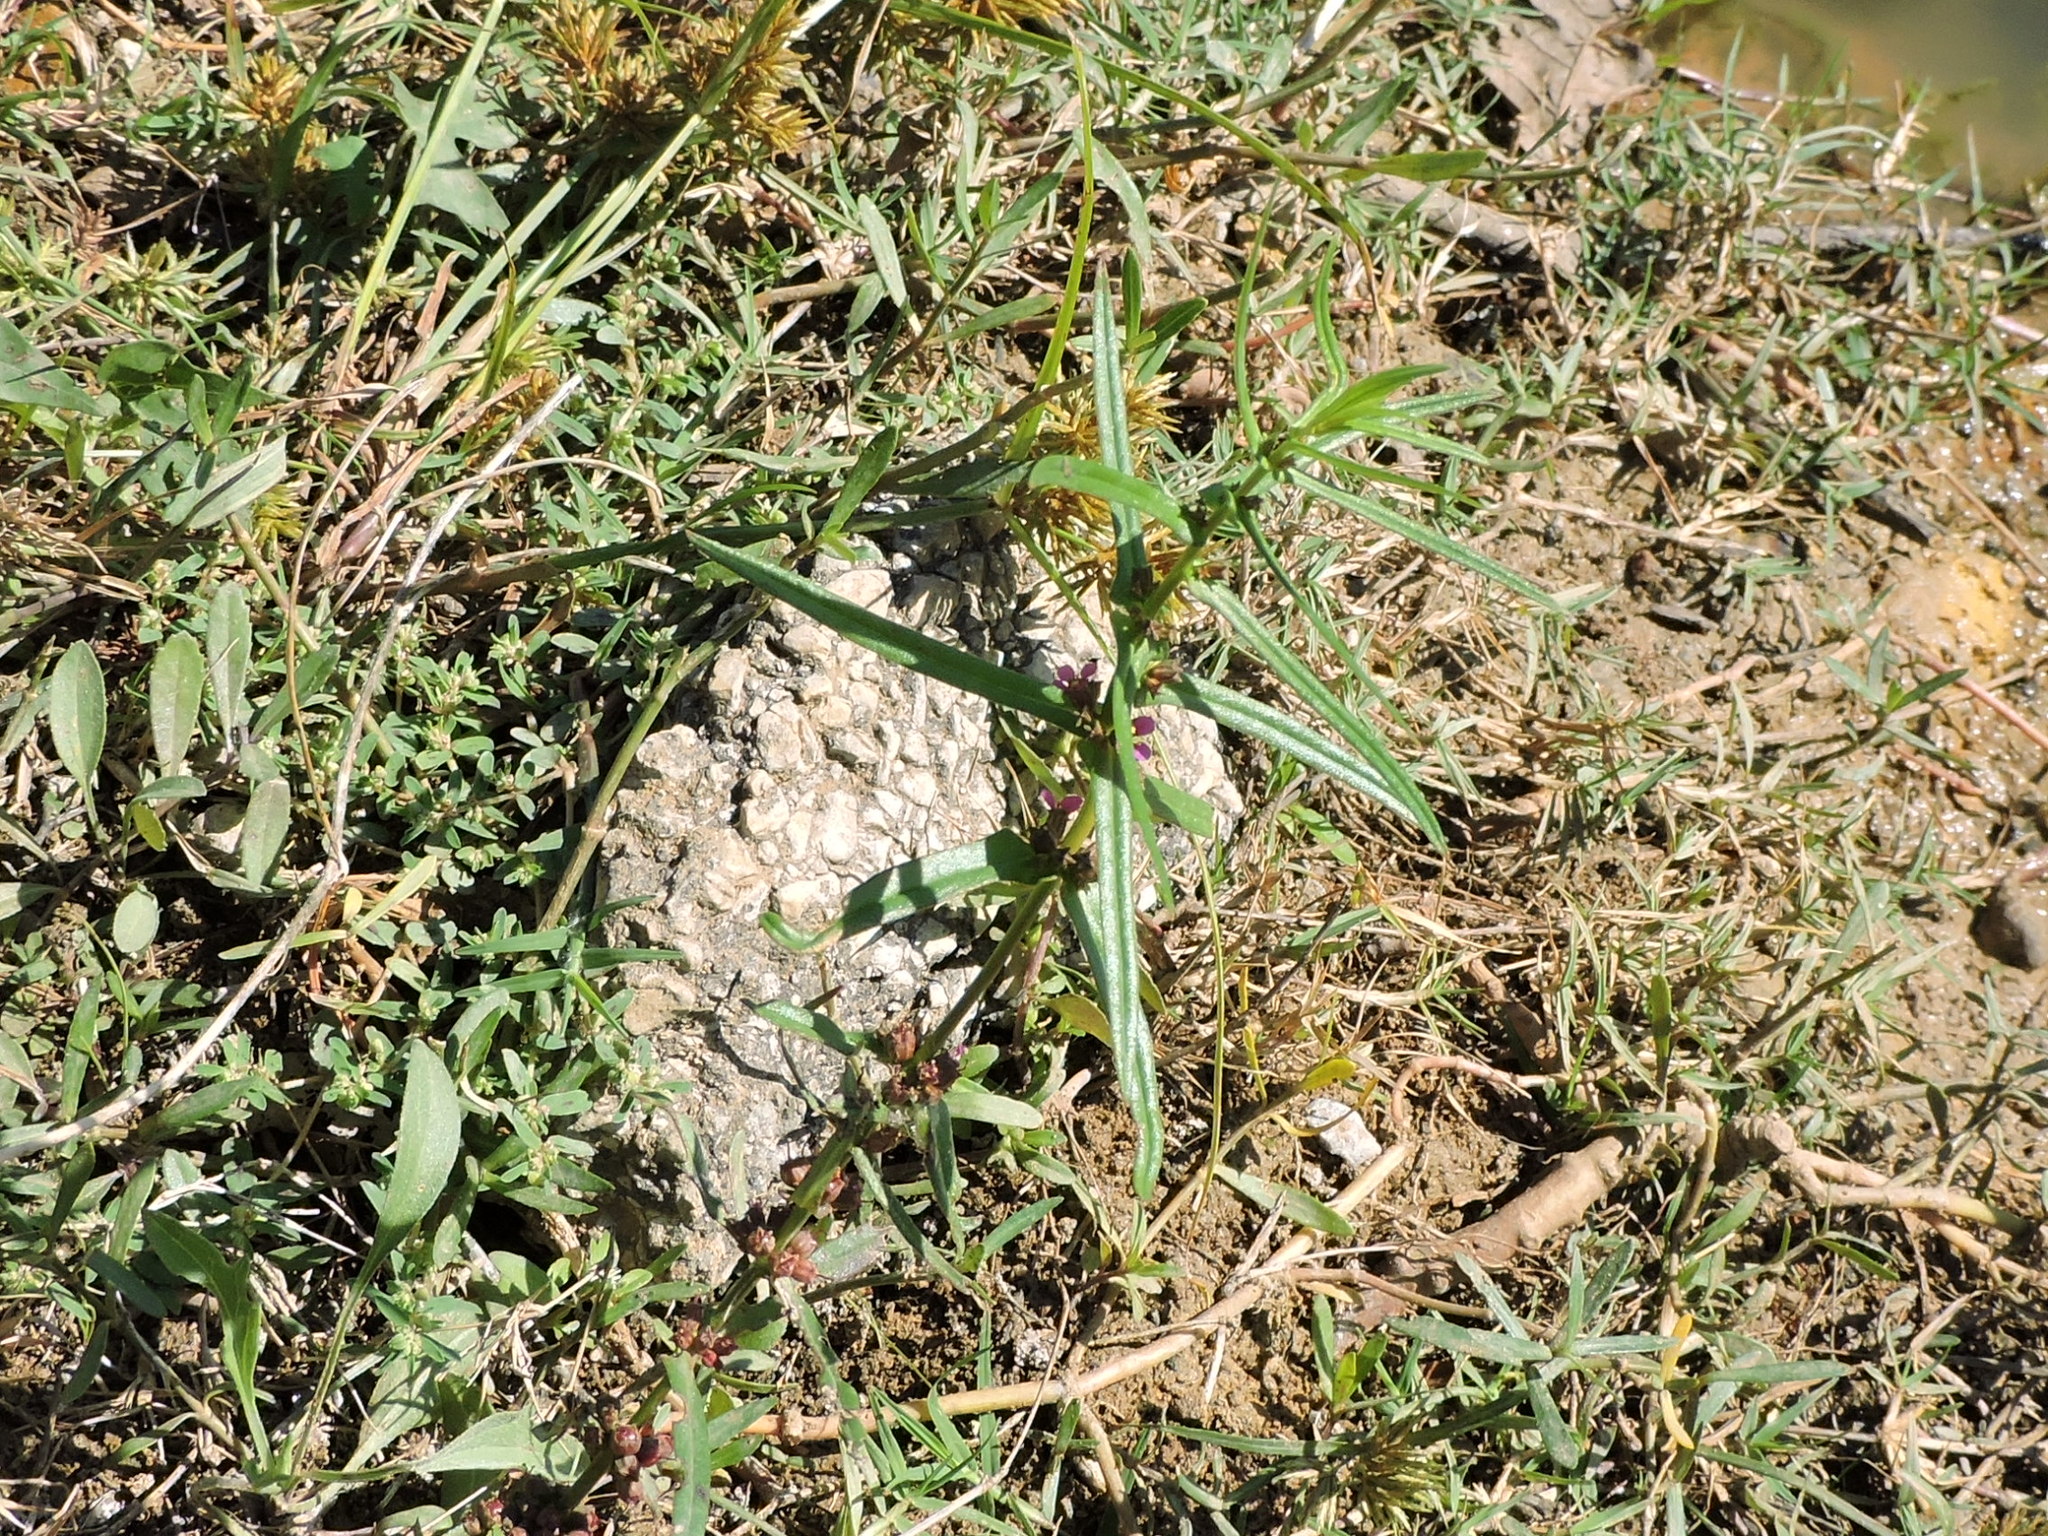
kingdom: Plantae
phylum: Tracheophyta
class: Magnoliopsida
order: Myrtales
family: Lythraceae
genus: Ammannia
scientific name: Ammannia coccinea
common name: Valley redstem
